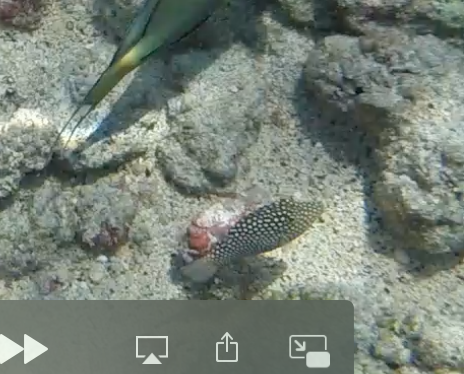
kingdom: Animalia
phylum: Chordata
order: Tetraodontiformes
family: Tetraodontidae
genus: Canthigaster
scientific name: Canthigaster jactator
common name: Hawaiian whitespotted toby
